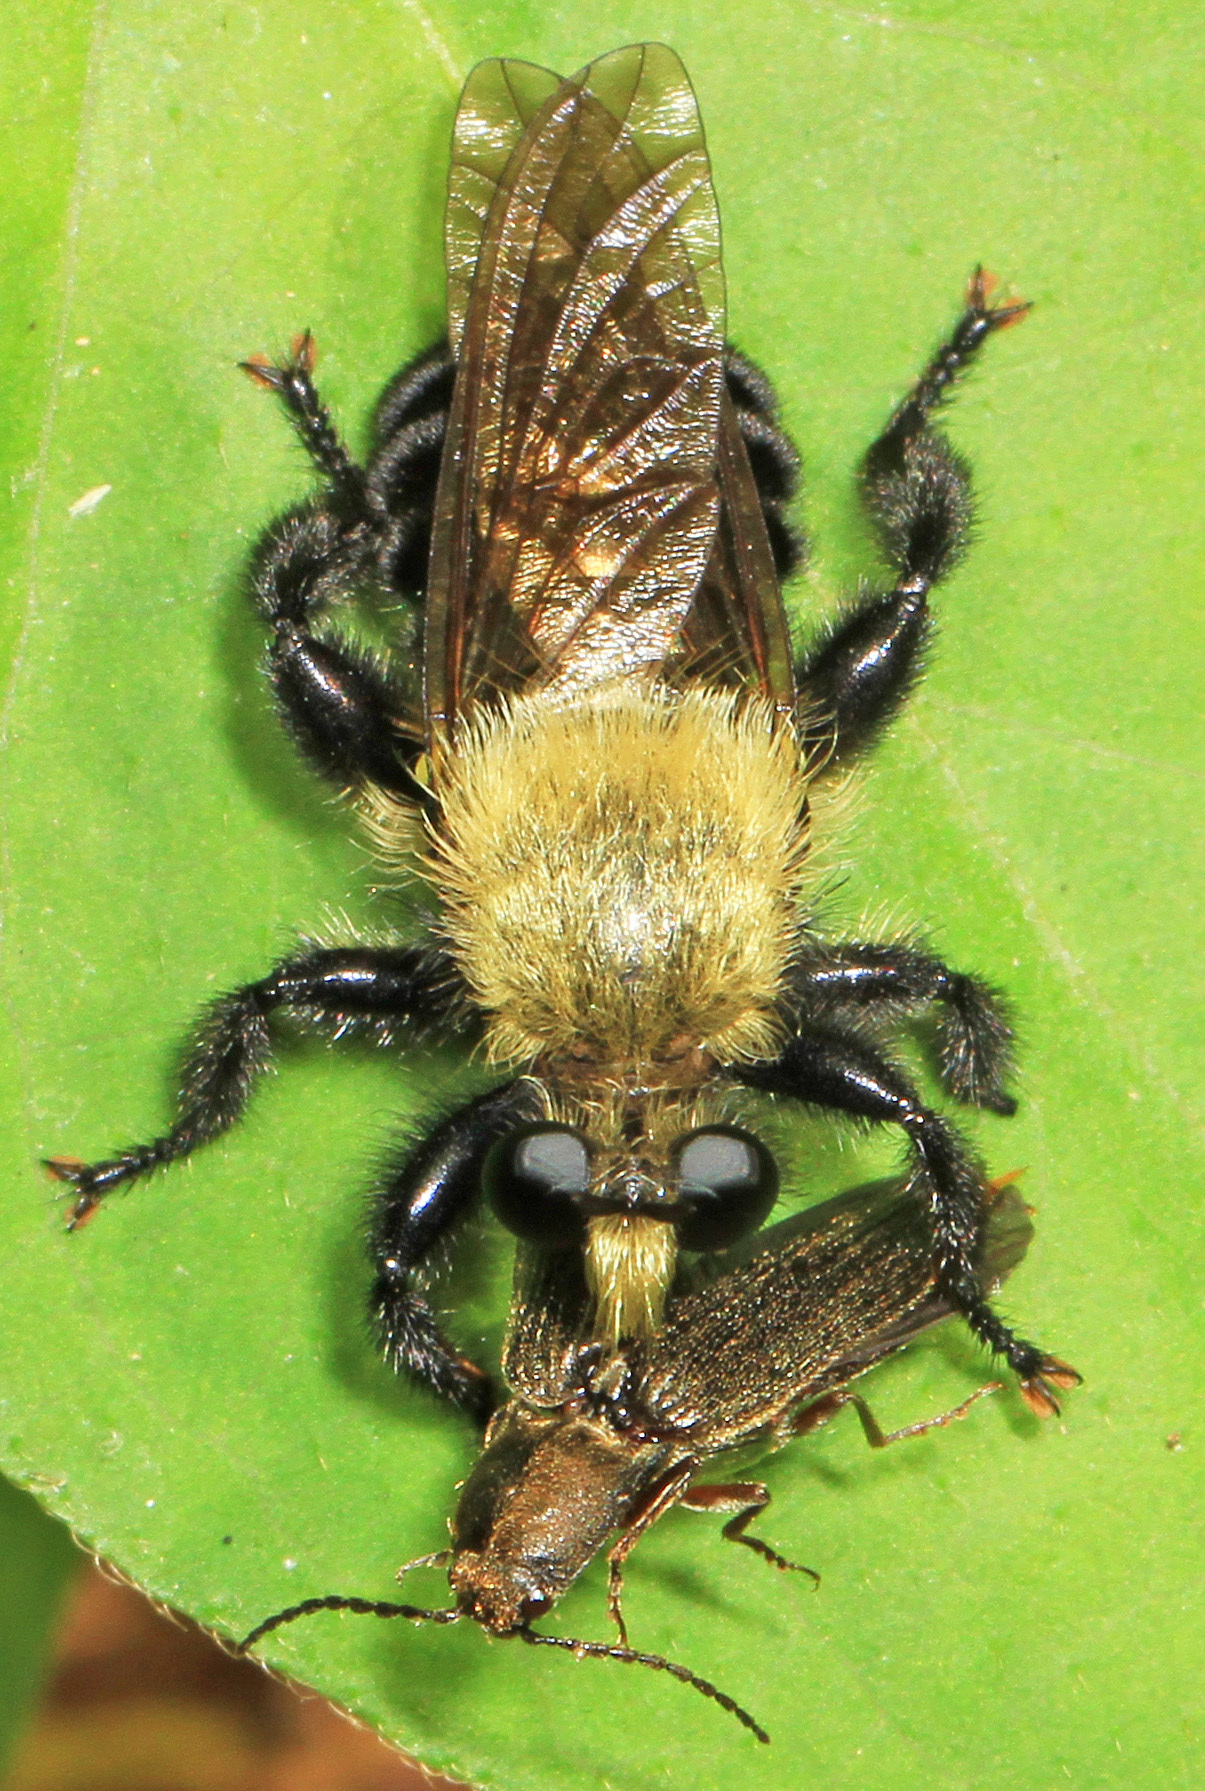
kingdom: Animalia
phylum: Arthropoda
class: Insecta
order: Diptera
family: Asilidae
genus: Laphria
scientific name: Laphria flavicollis
